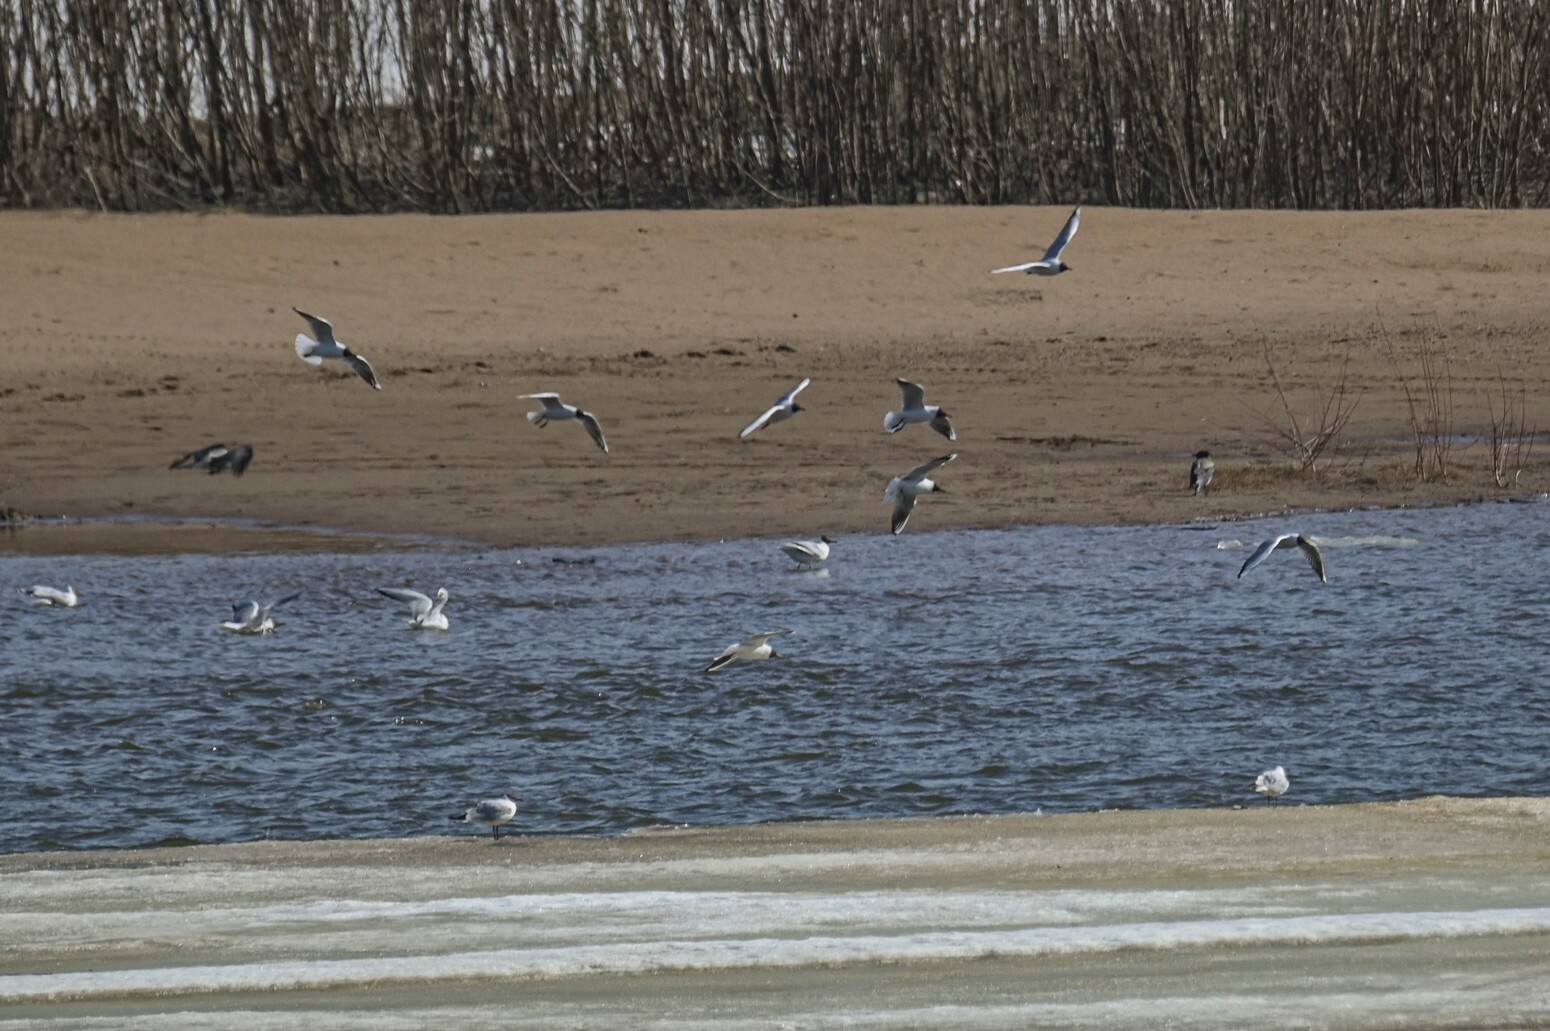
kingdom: Animalia
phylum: Chordata
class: Aves
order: Charadriiformes
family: Laridae
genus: Chroicocephalus
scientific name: Chroicocephalus ridibundus
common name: Black-headed gull
